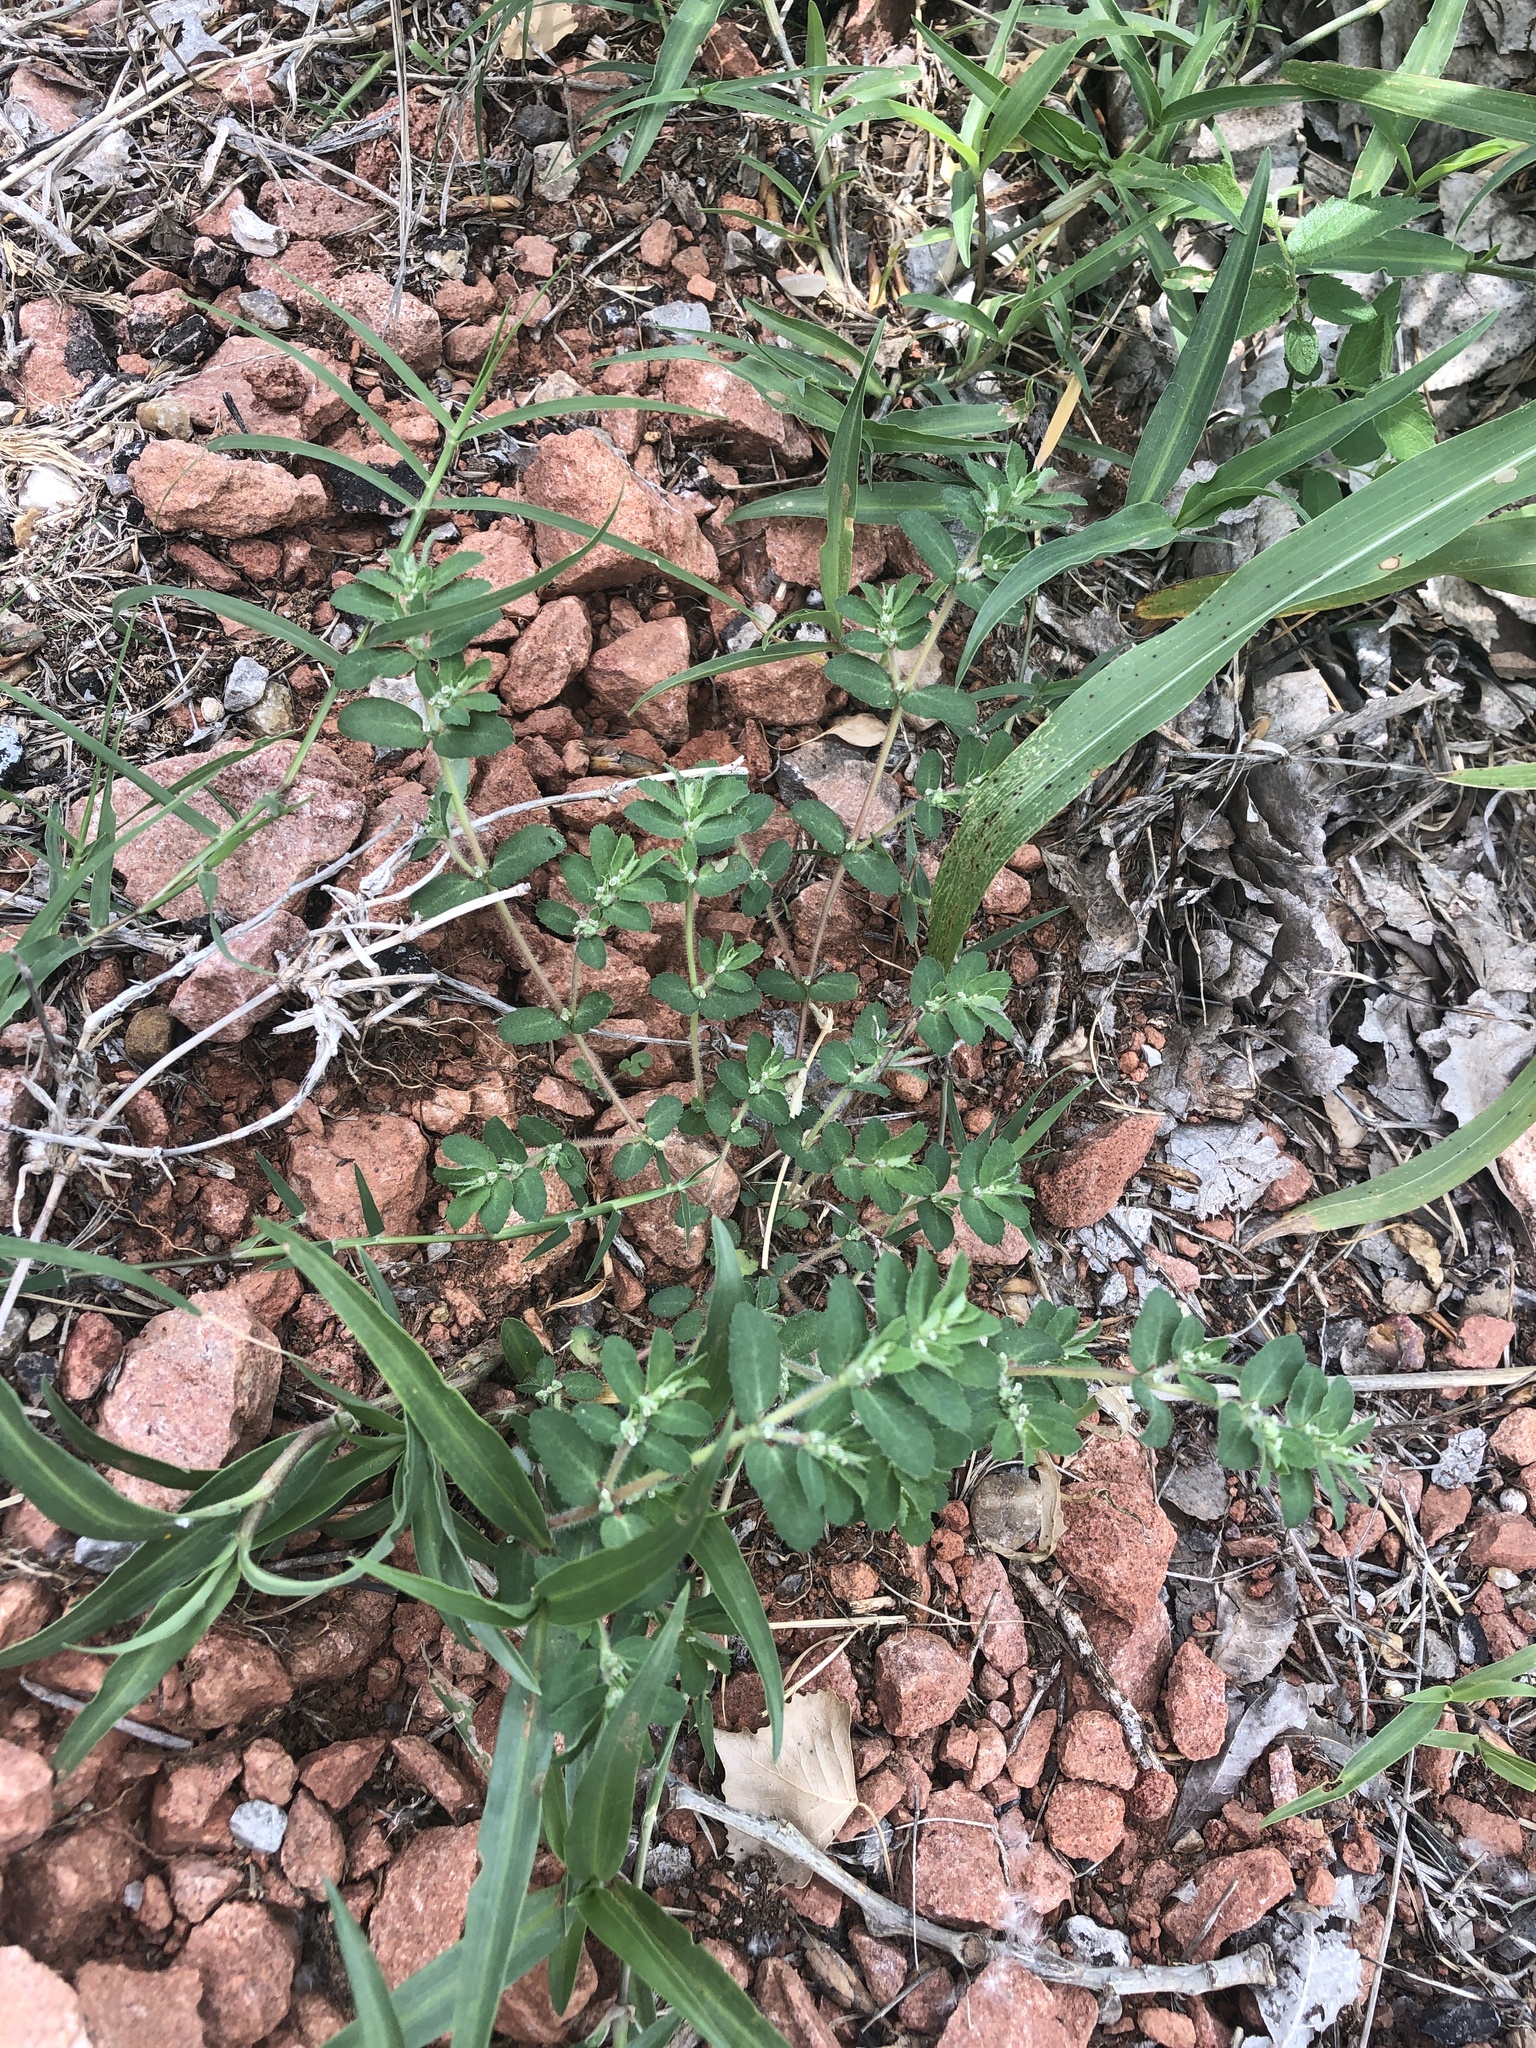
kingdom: Plantae
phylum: Tracheophyta
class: Magnoliopsida
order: Malpighiales
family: Euphorbiaceae
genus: Euphorbia
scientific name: Euphorbia stictospora
